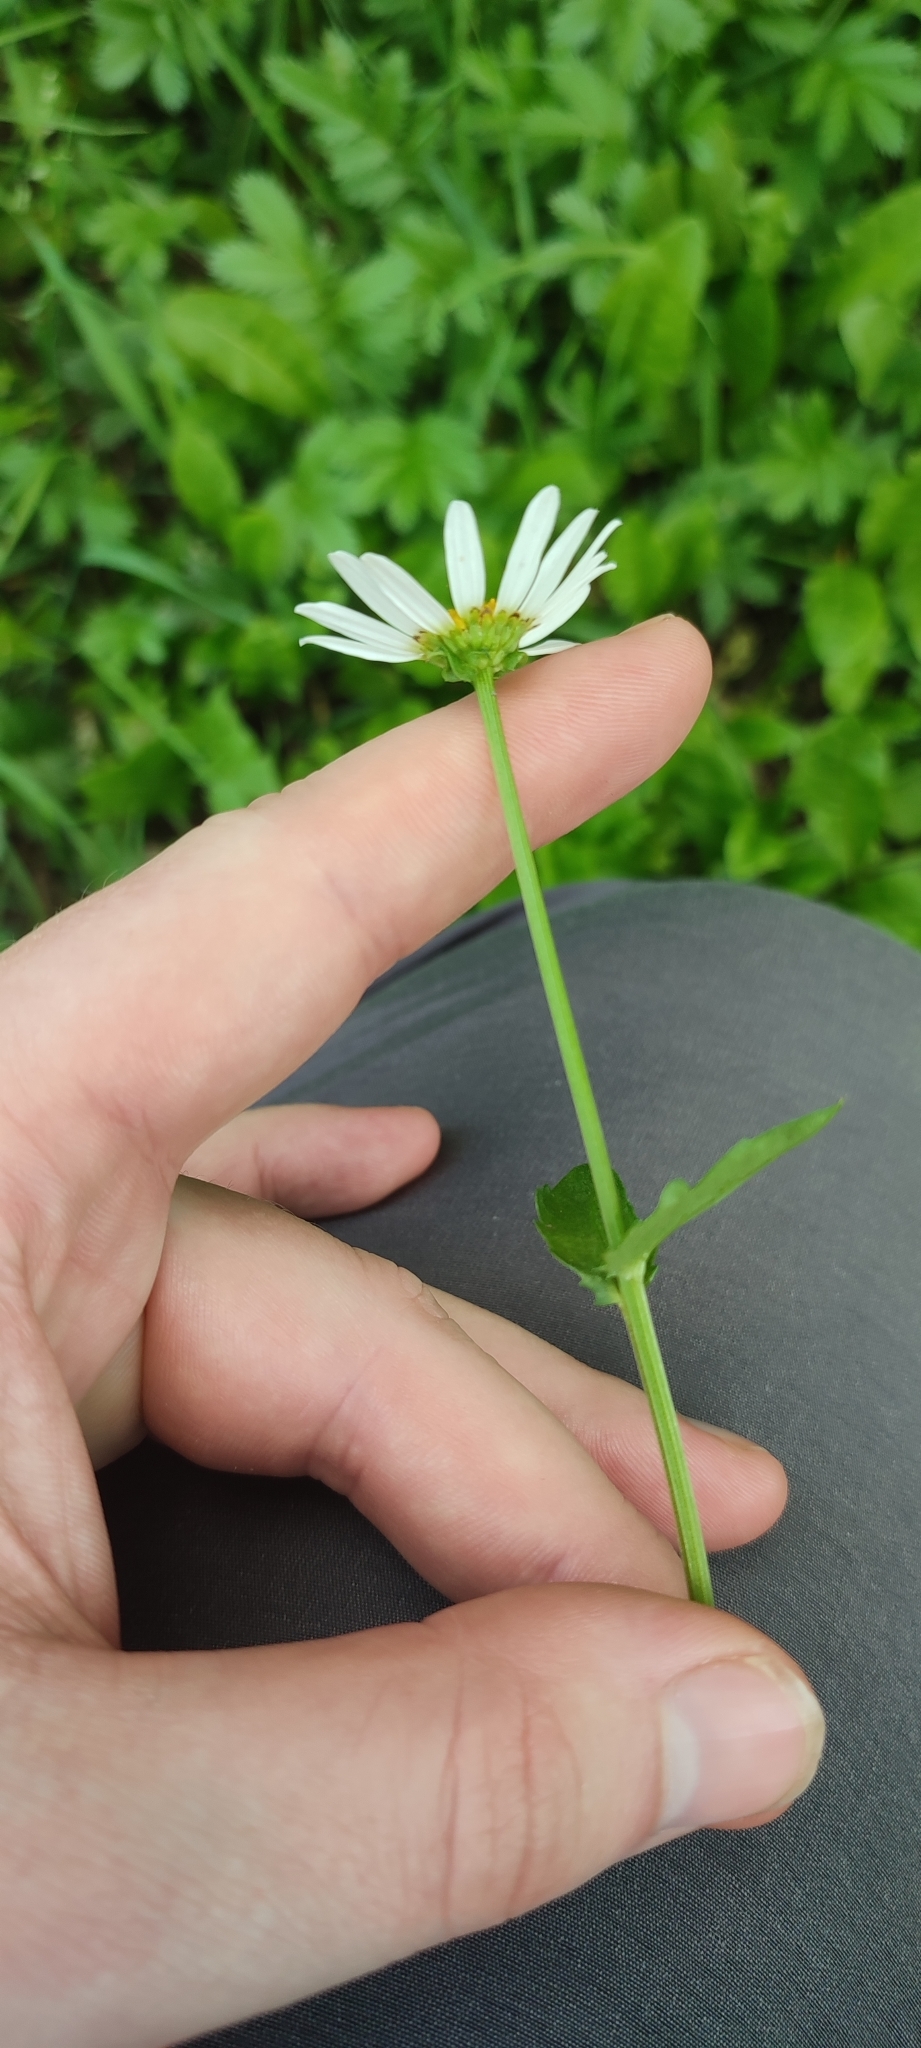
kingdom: Plantae
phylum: Tracheophyta
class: Magnoliopsida
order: Asterales
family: Asteraceae
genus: Leucanthemum
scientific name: Leucanthemum ircutianum
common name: Daisy
